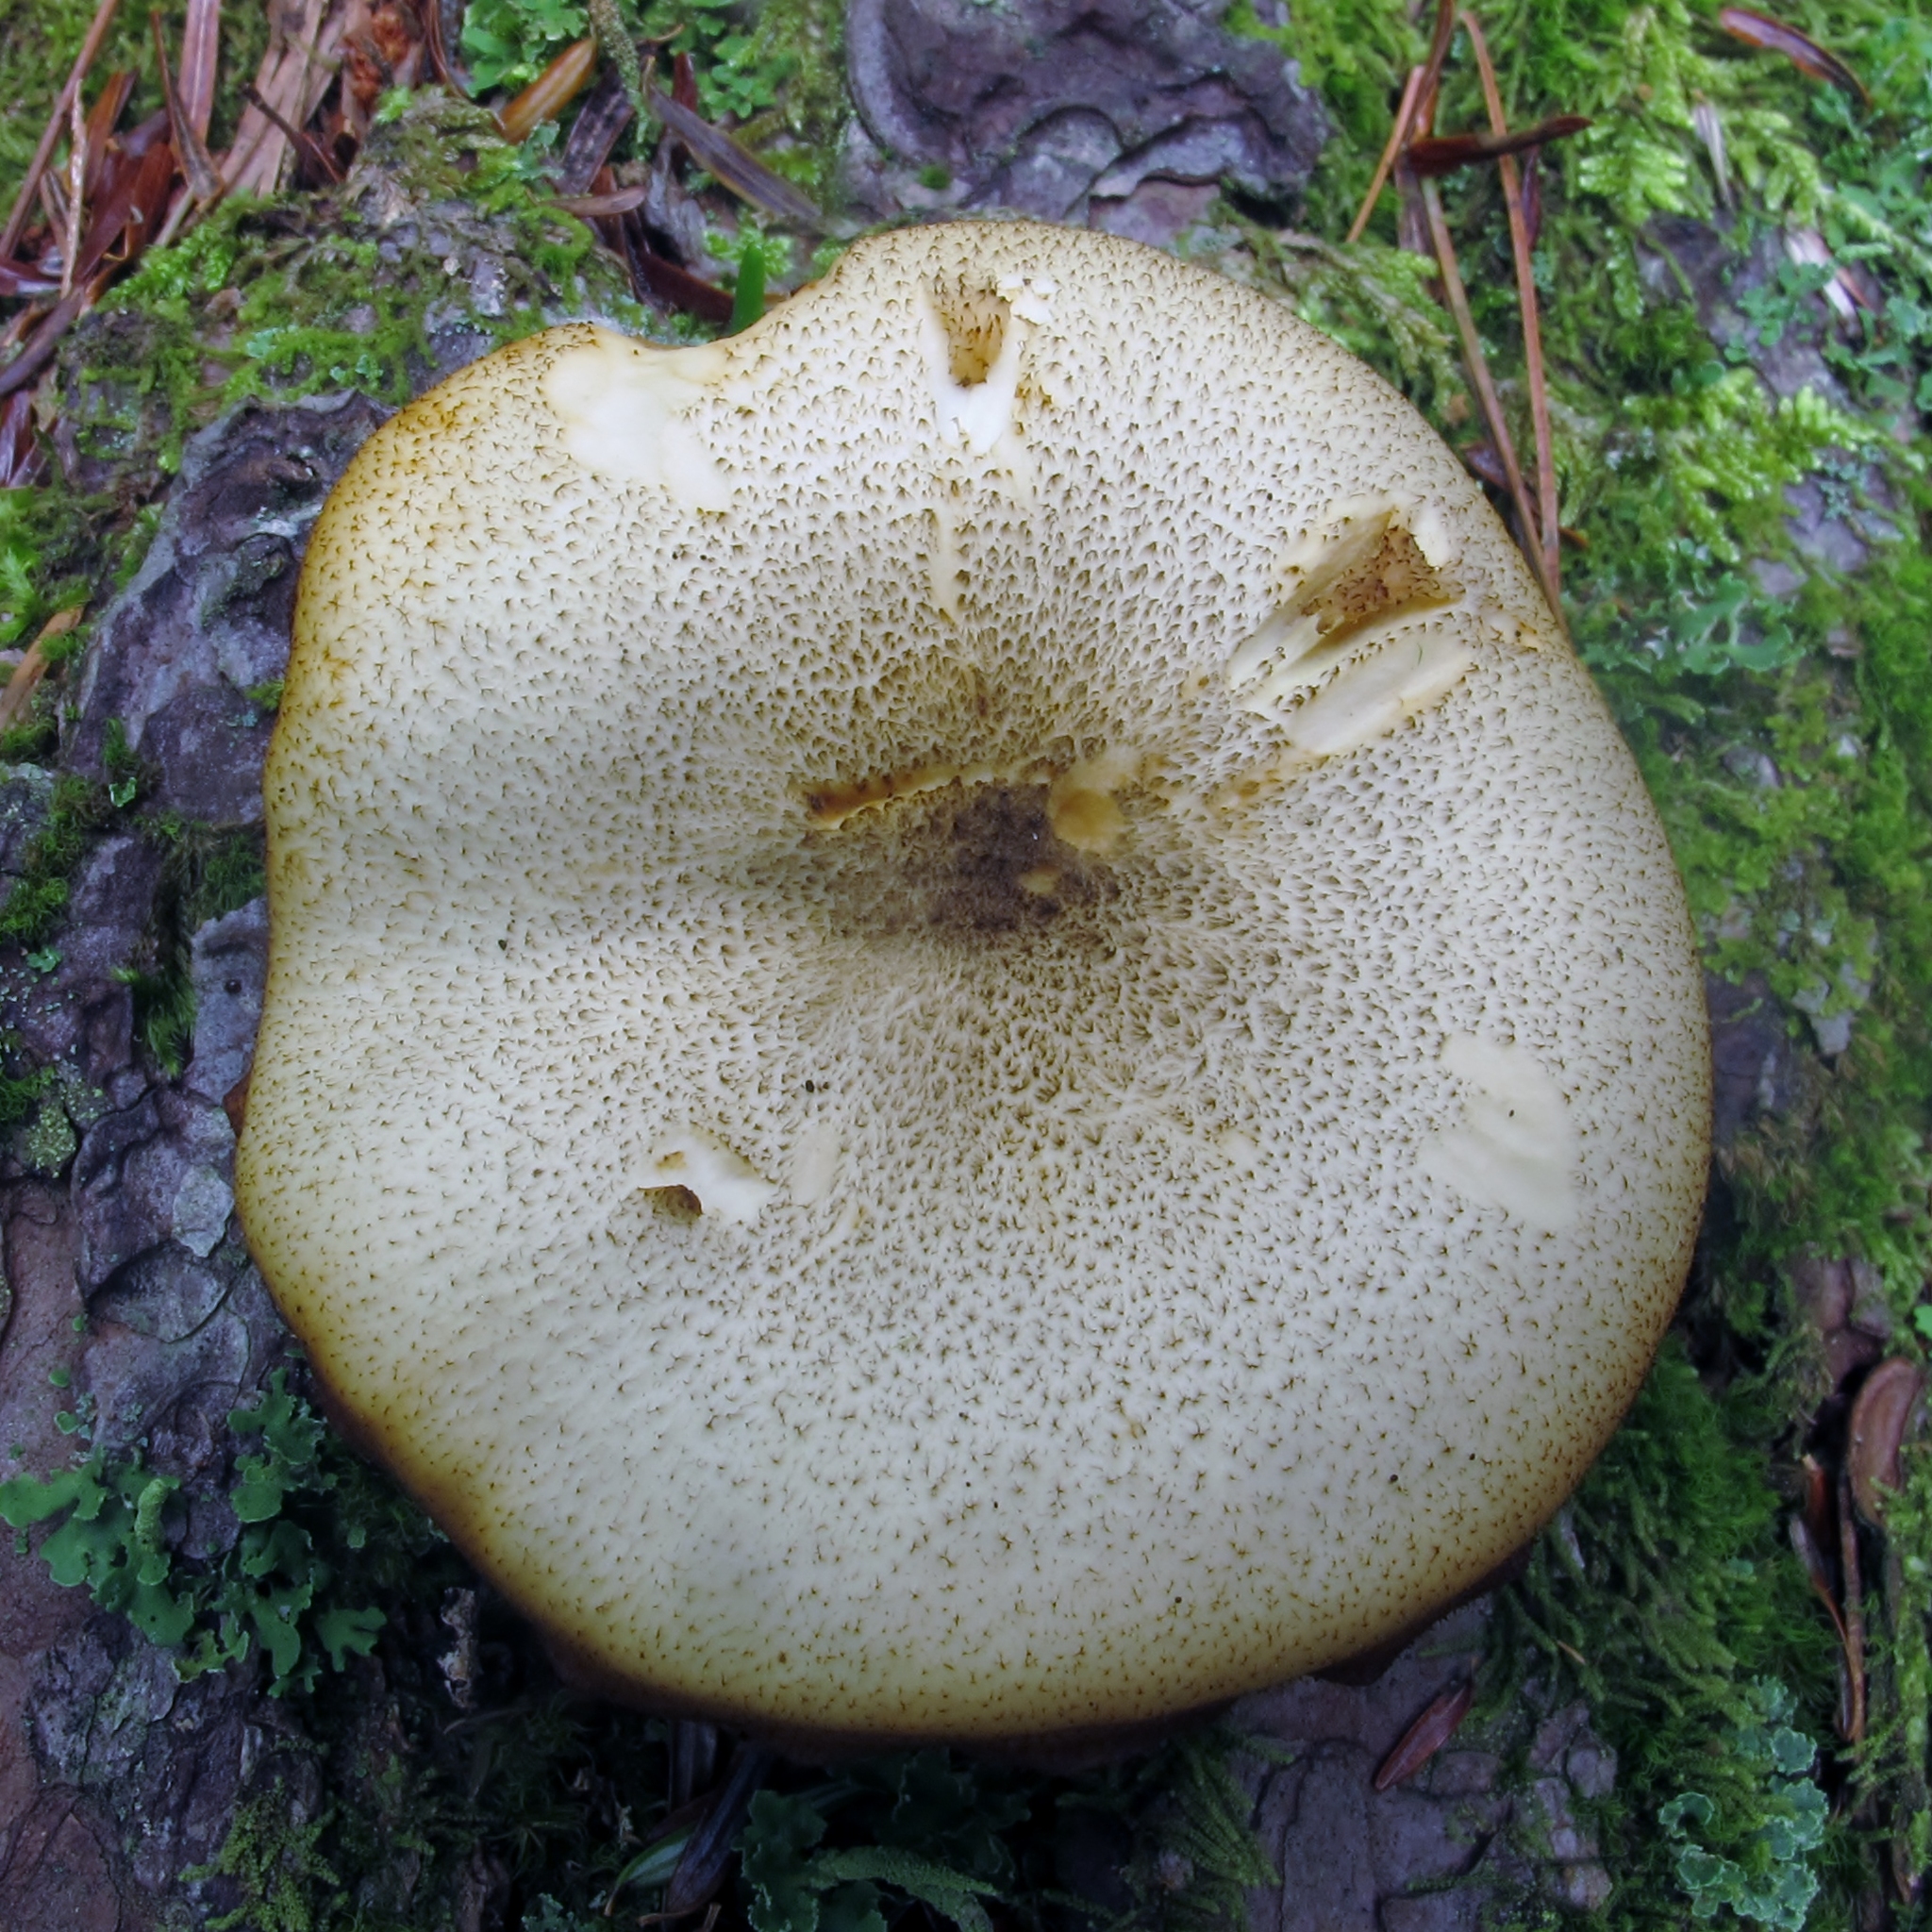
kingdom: Fungi
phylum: Basidiomycota
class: Agaricomycetes
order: Agaricales
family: Tricholomataceae
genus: Tricholomopsis
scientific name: Tricholomopsis decora
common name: Prunes and custard
